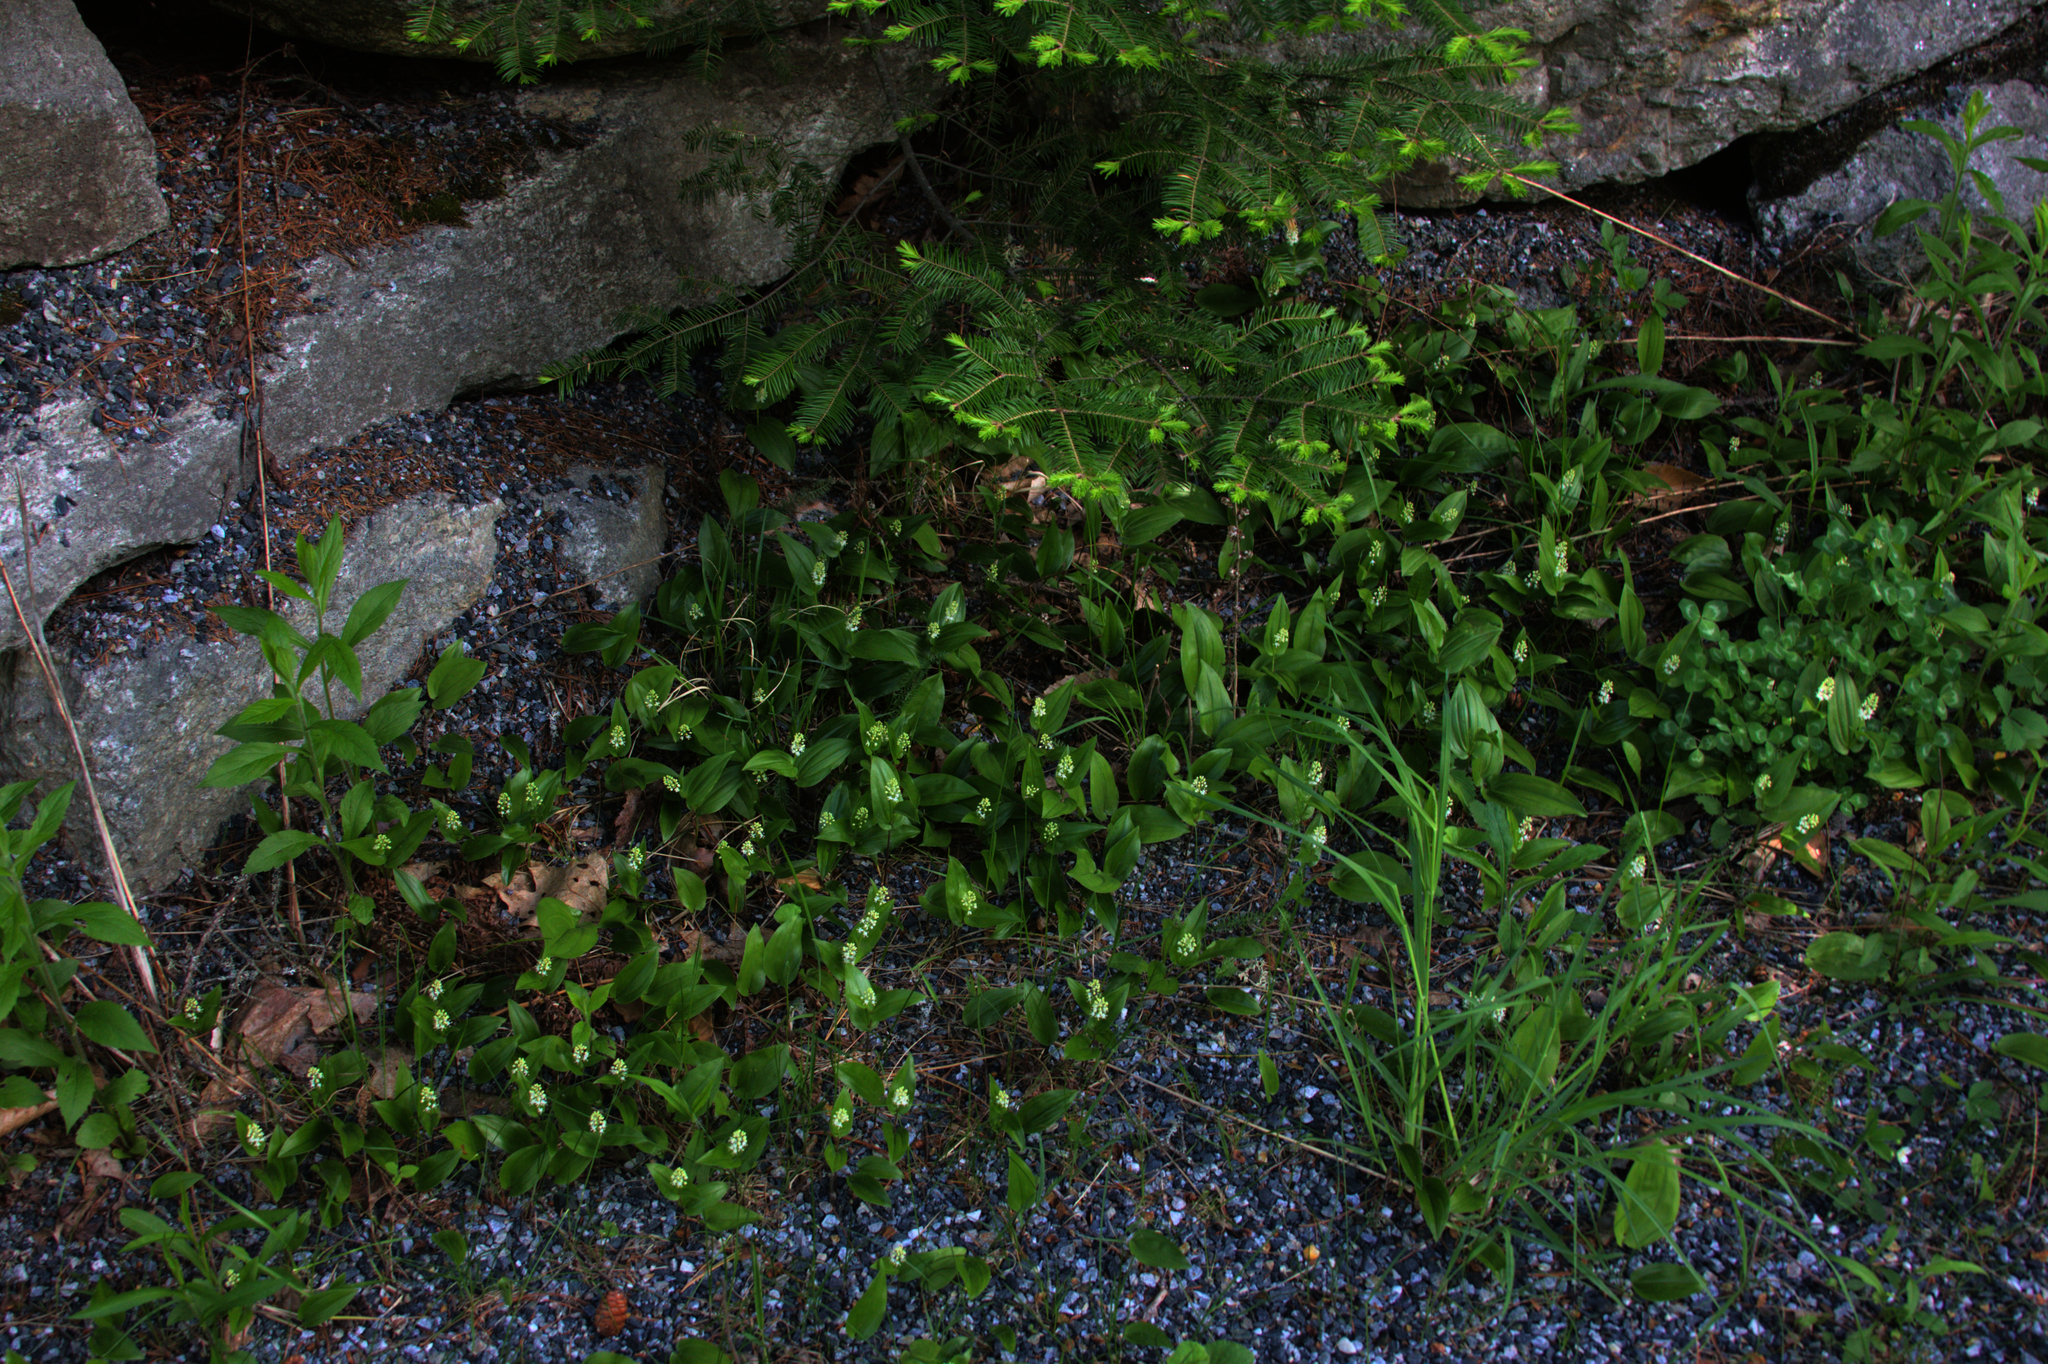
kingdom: Plantae
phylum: Tracheophyta
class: Liliopsida
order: Asparagales
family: Asparagaceae
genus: Maianthemum
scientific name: Maianthemum canadense
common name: False lily-of-the-valley
